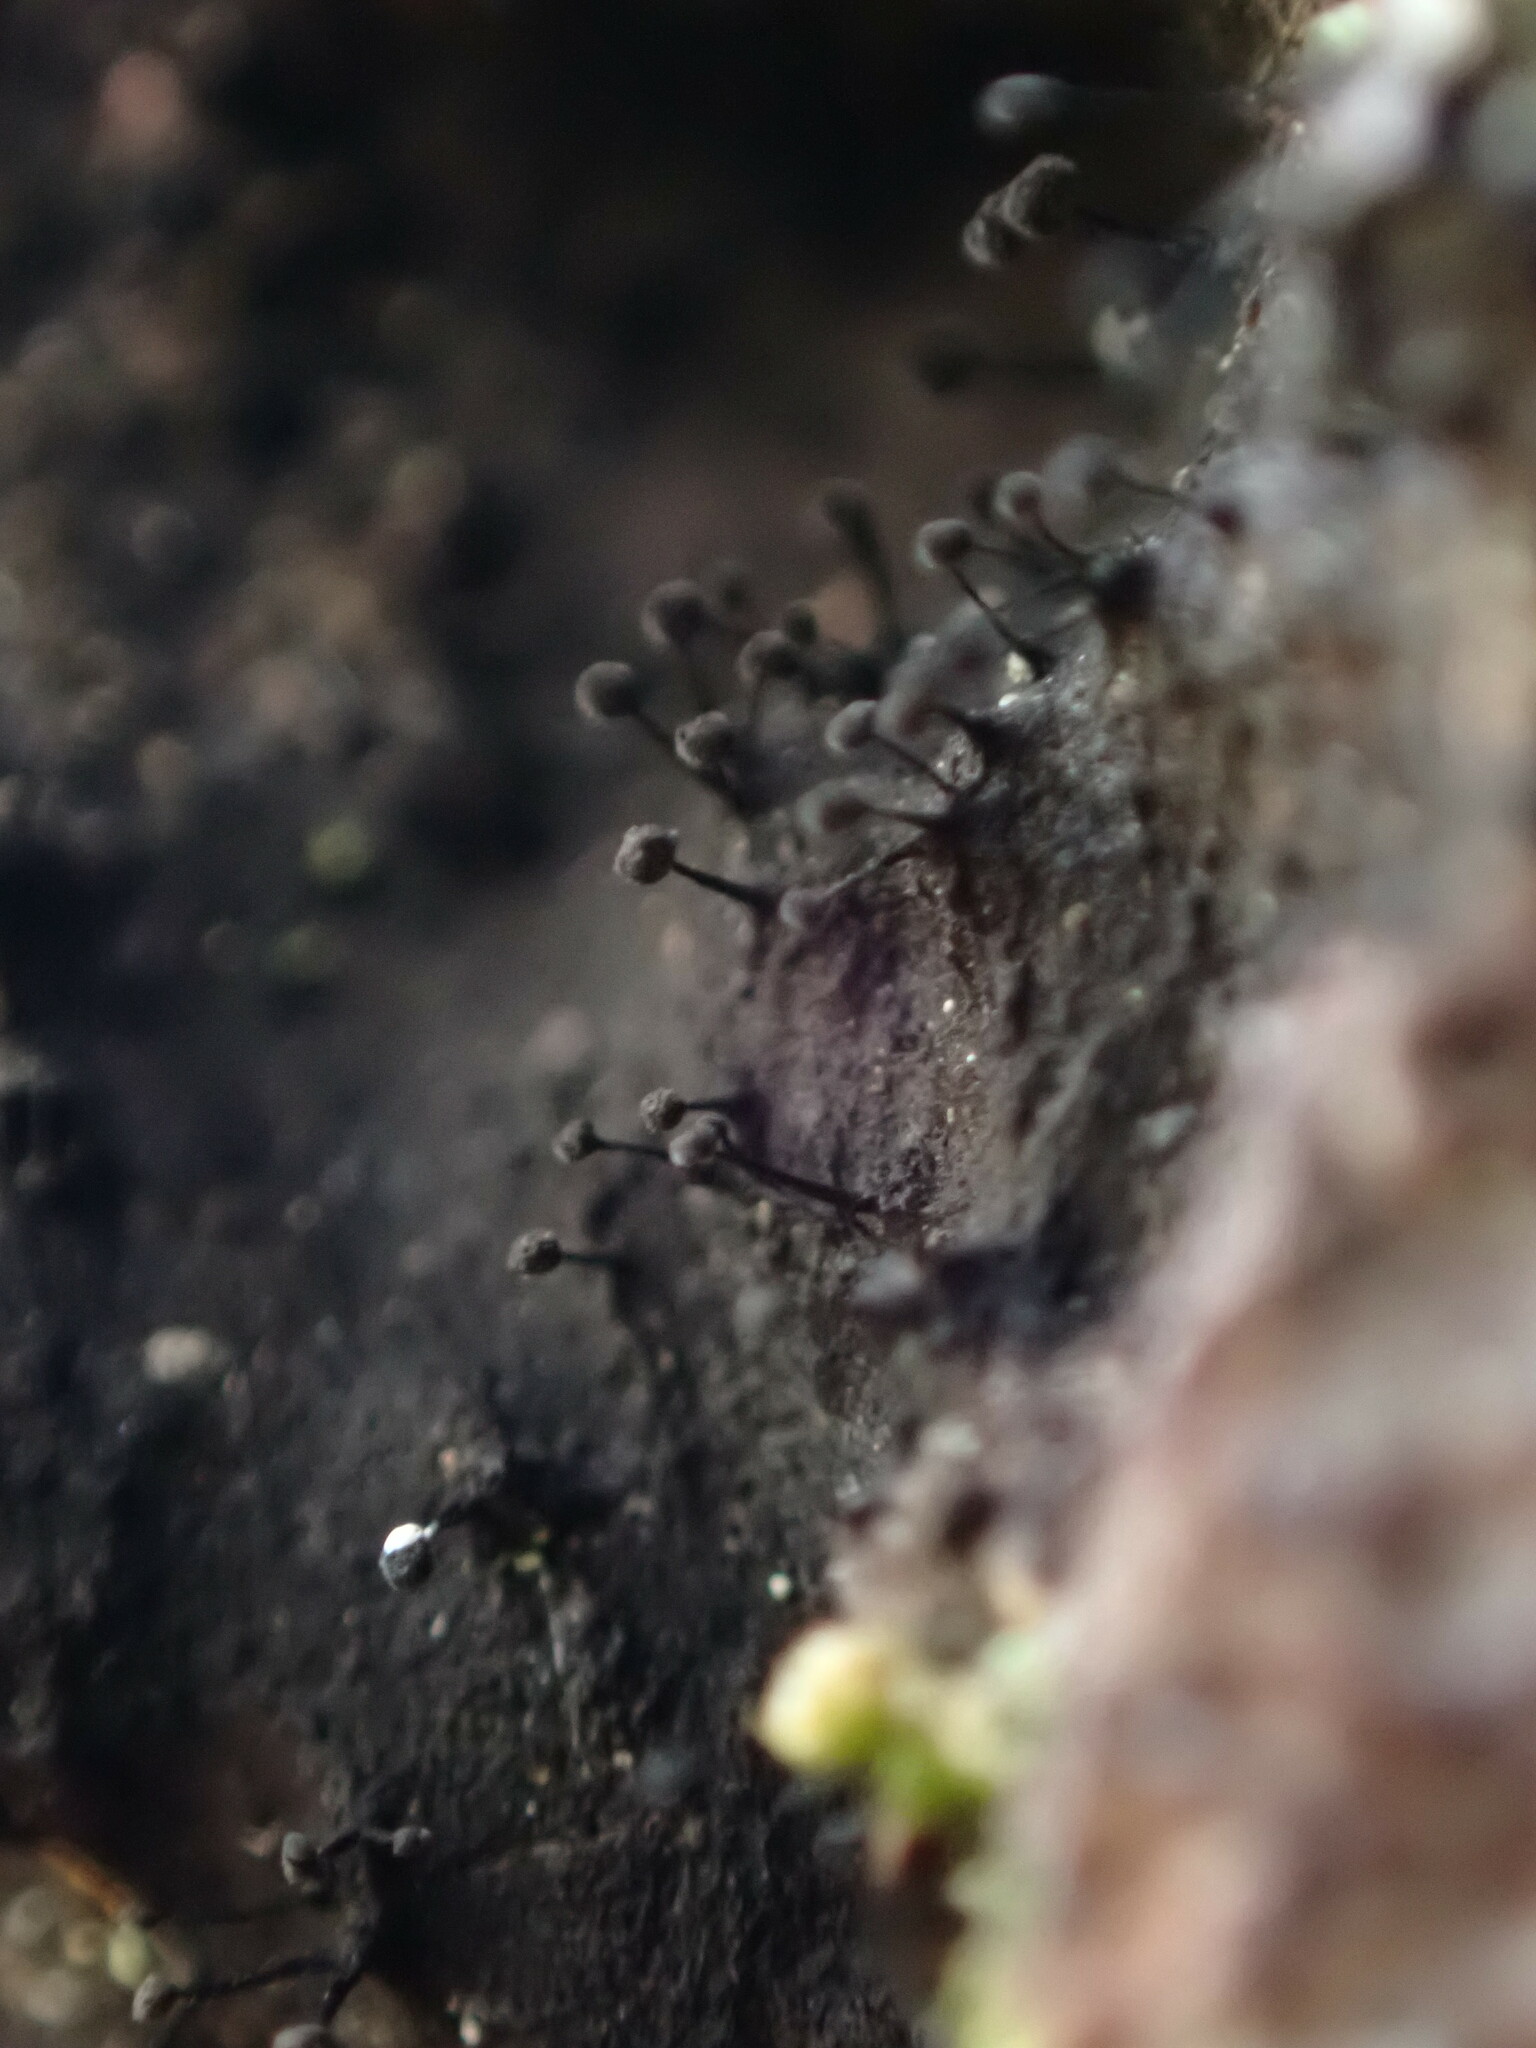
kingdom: Fungi
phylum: Ascomycota
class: Leotiomycetes
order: Helotiales
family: Amorphothecaceae
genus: Sorocybe
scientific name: Sorocybe resinae
